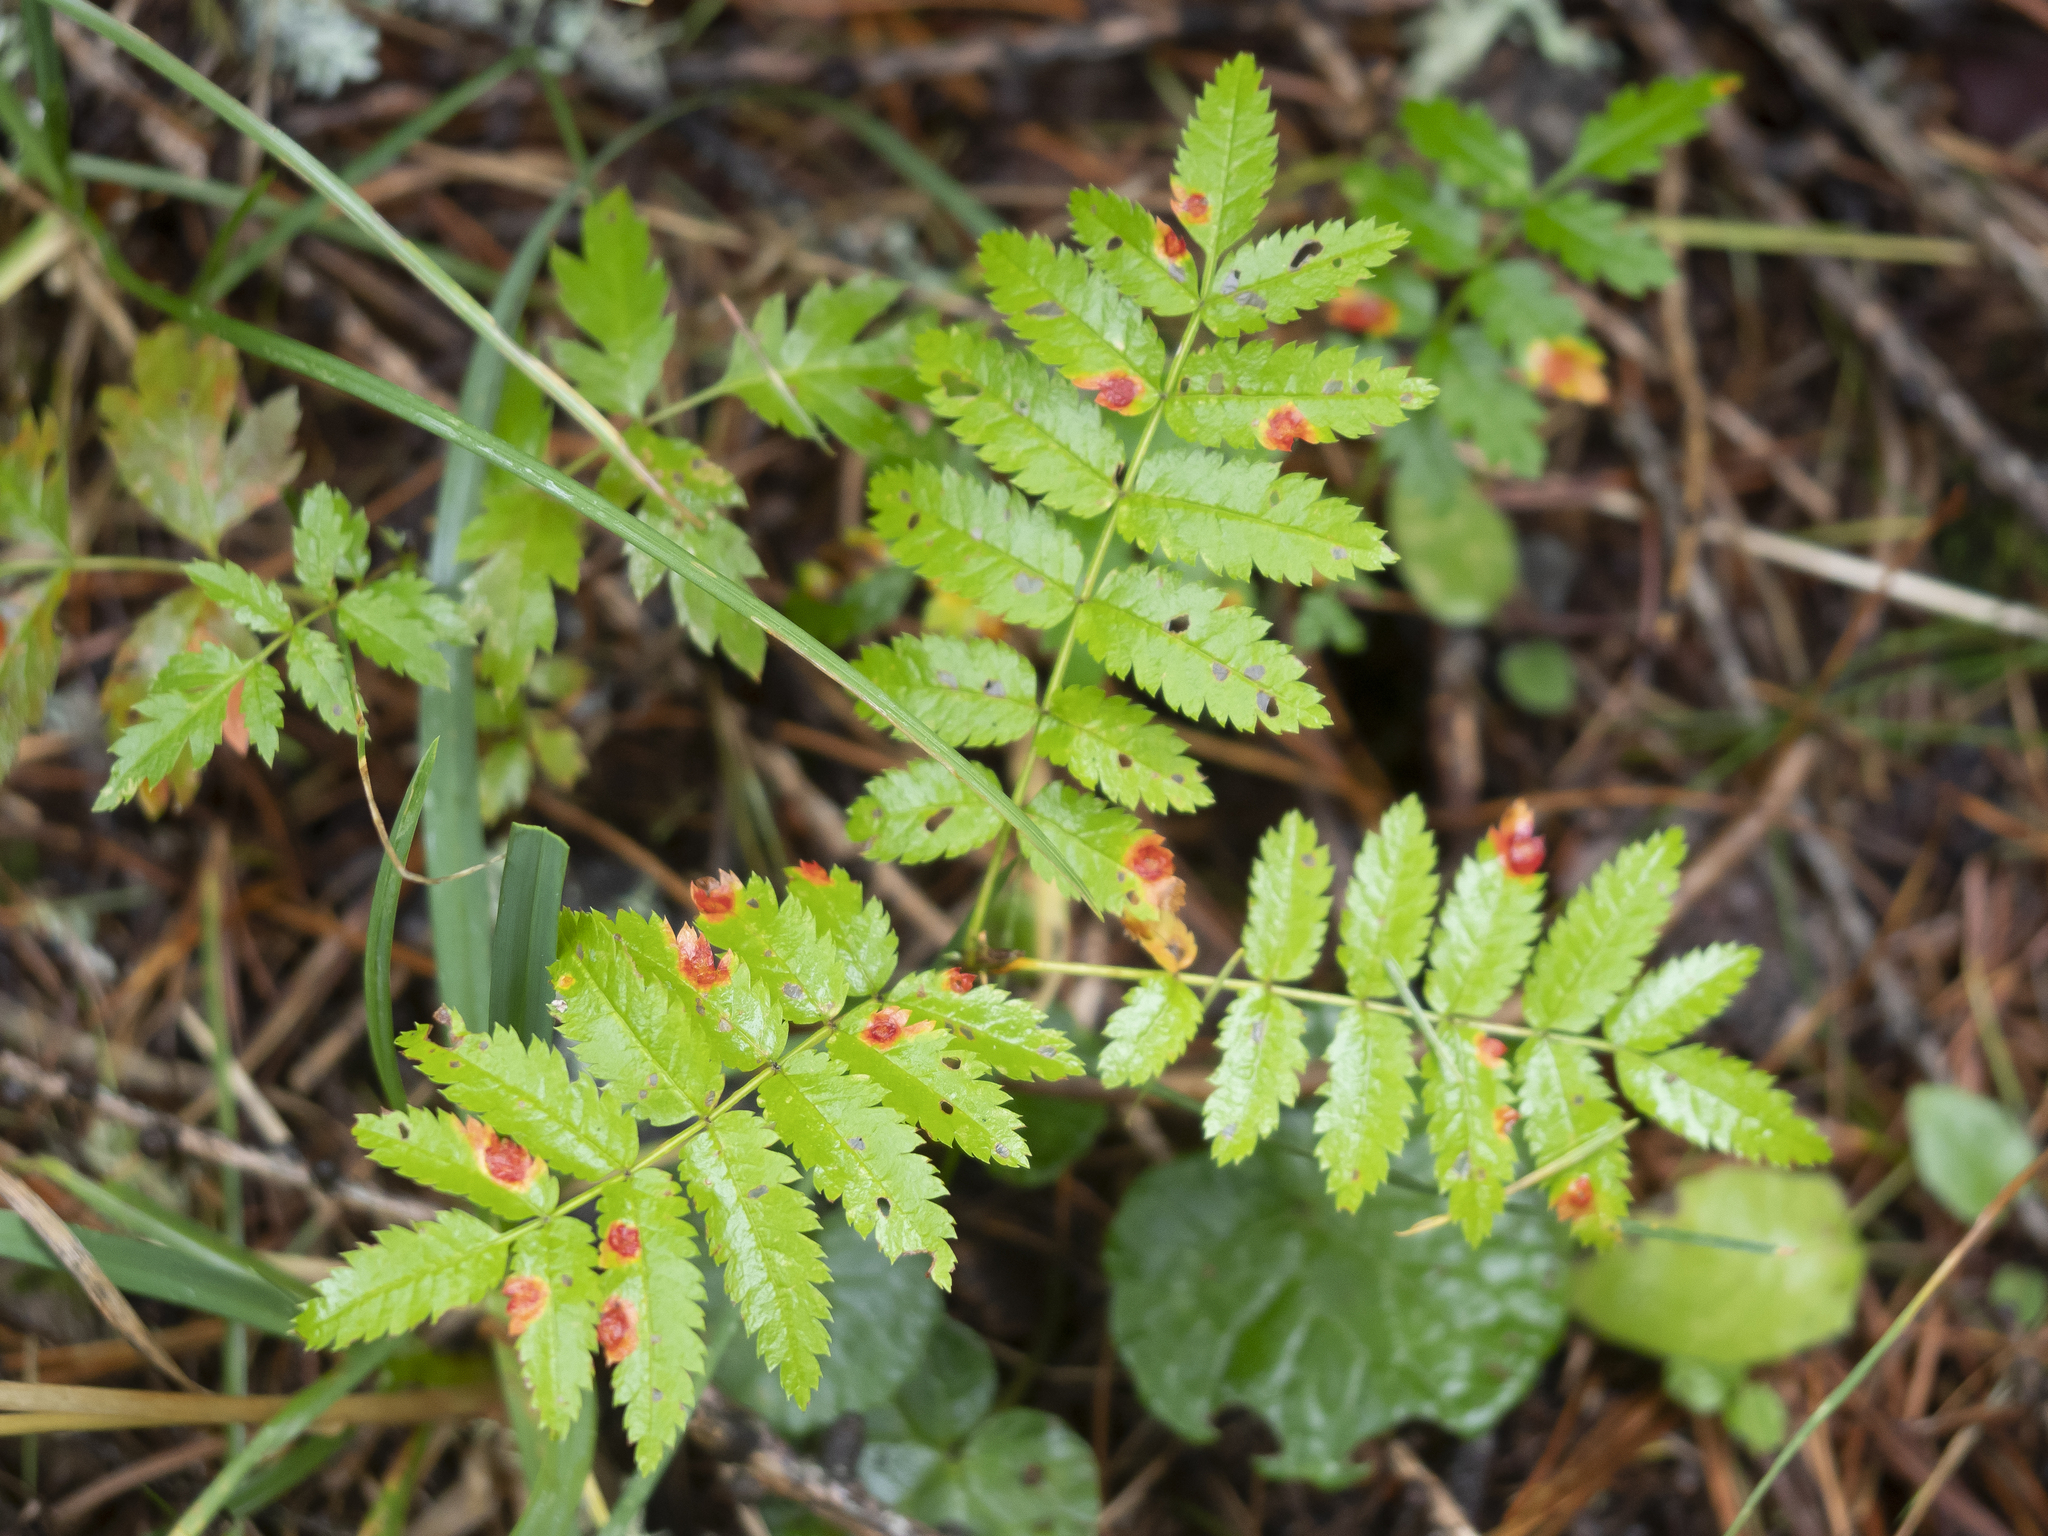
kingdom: Fungi
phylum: Basidiomycota
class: Pucciniomycetes
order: Pucciniales
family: Gymnosporangiaceae
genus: Gymnosporangium
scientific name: Gymnosporangium cornutum
